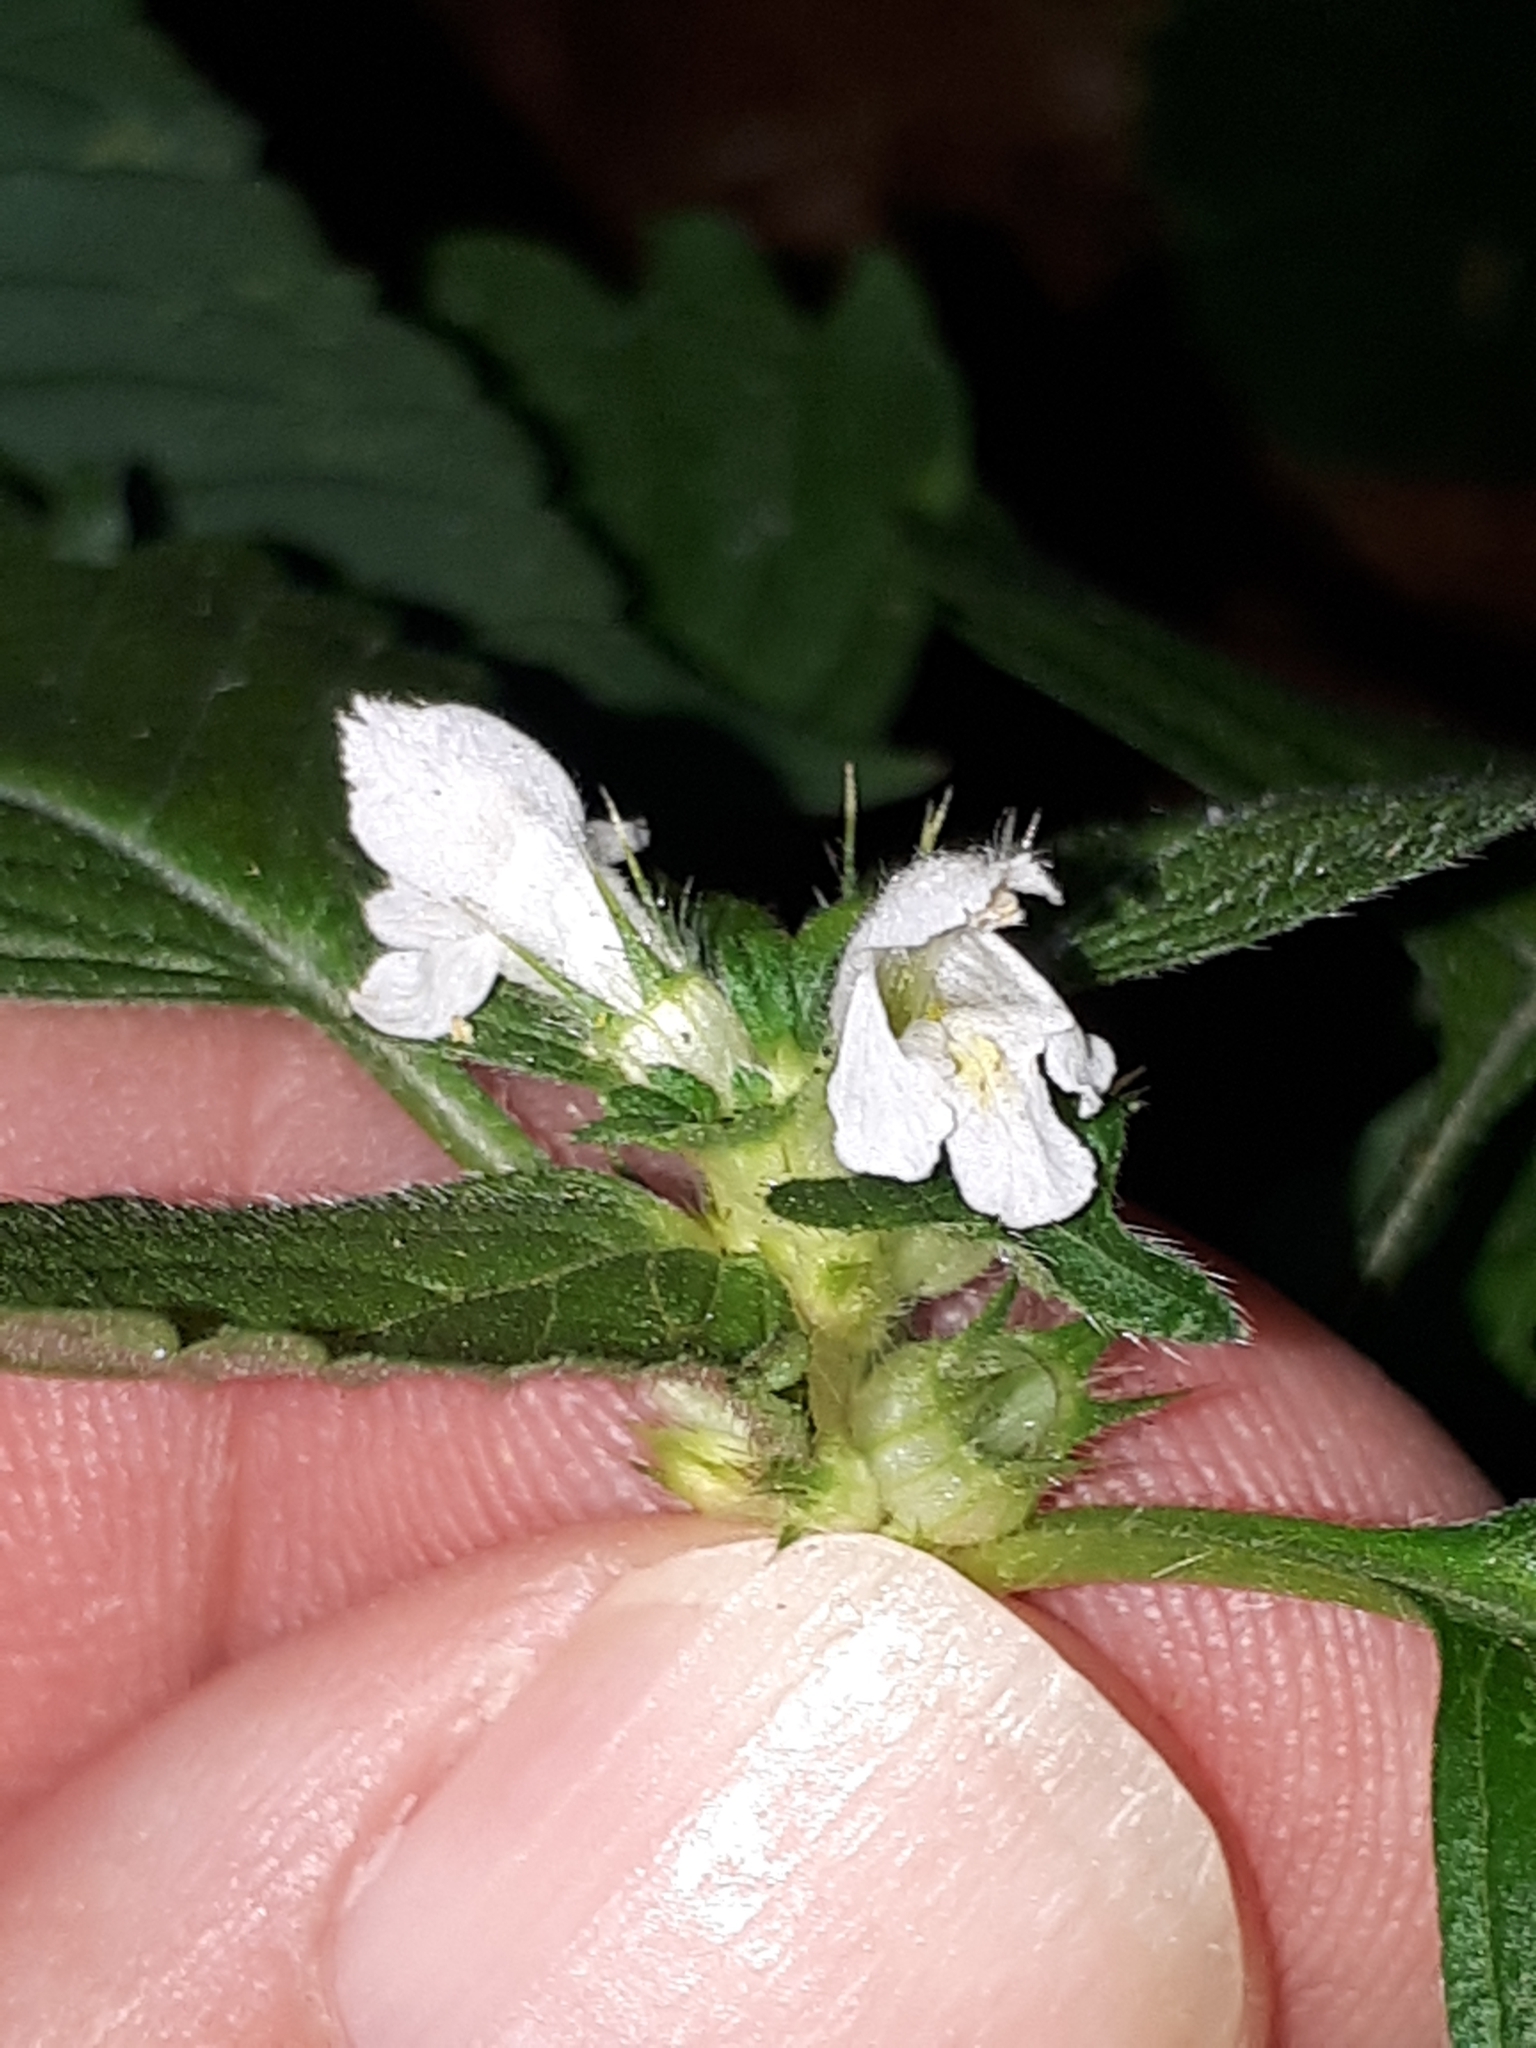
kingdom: Plantae
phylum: Tracheophyta
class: Magnoliopsida
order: Lamiales
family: Lamiaceae
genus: Galeopsis
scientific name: Galeopsis tetrahit
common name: Common hemp-nettle
